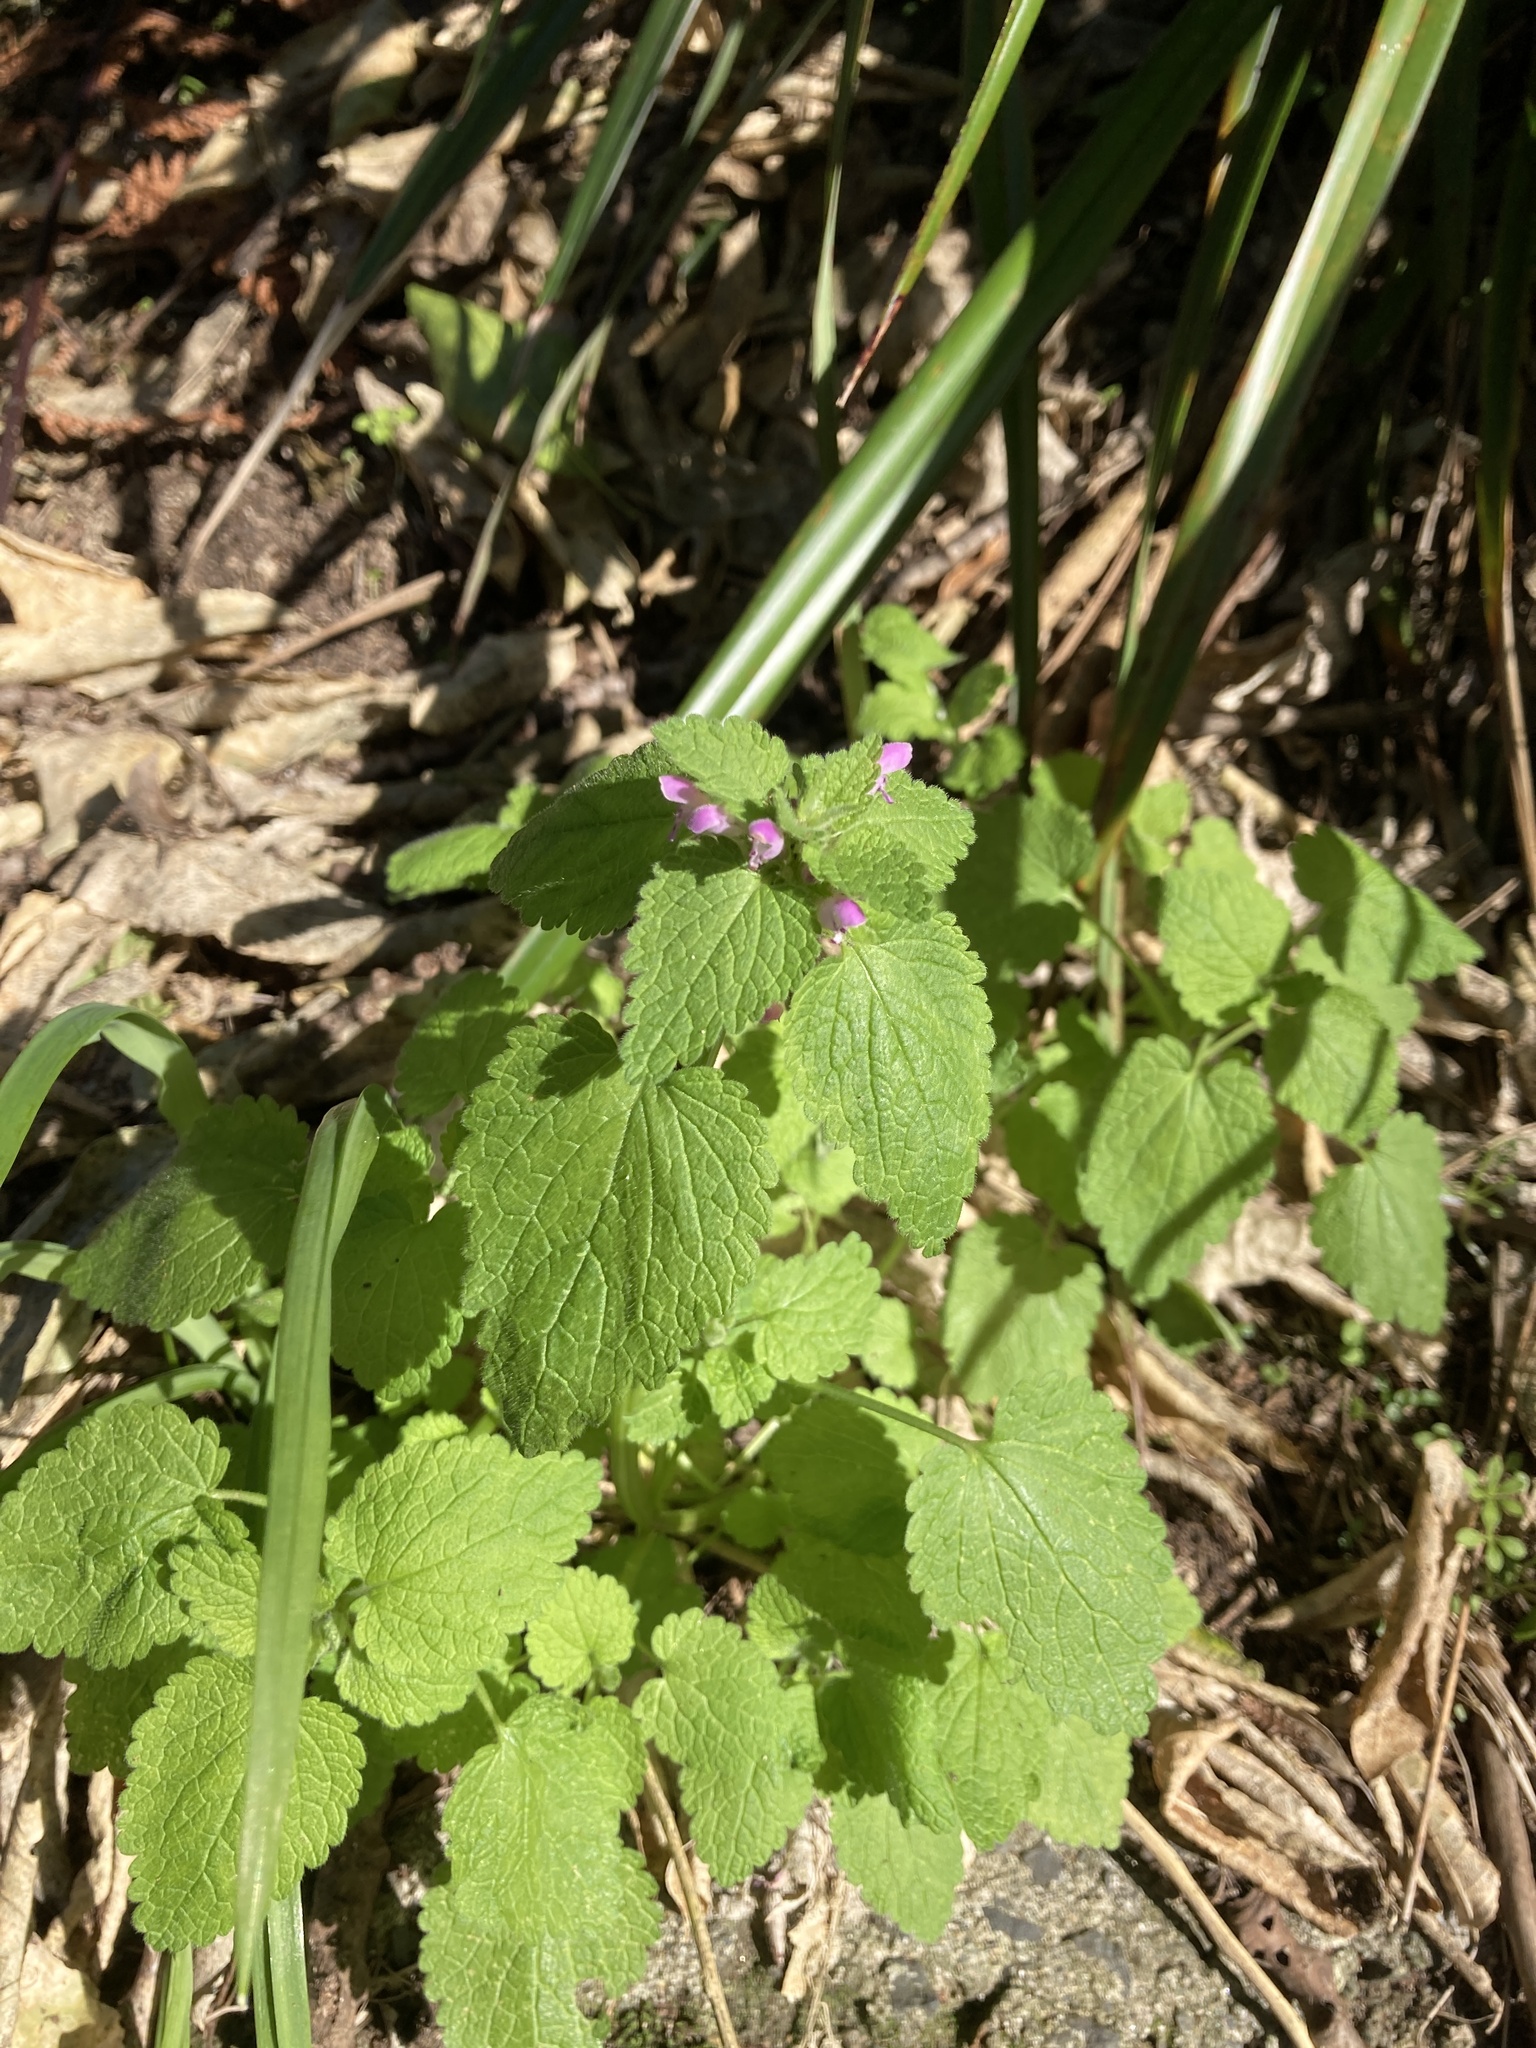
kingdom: Plantae
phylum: Tracheophyta
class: Magnoliopsida
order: Lamiales
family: Lamiaceae
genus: Lamium
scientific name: Lamium purpureum
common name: Red dead-nettle
